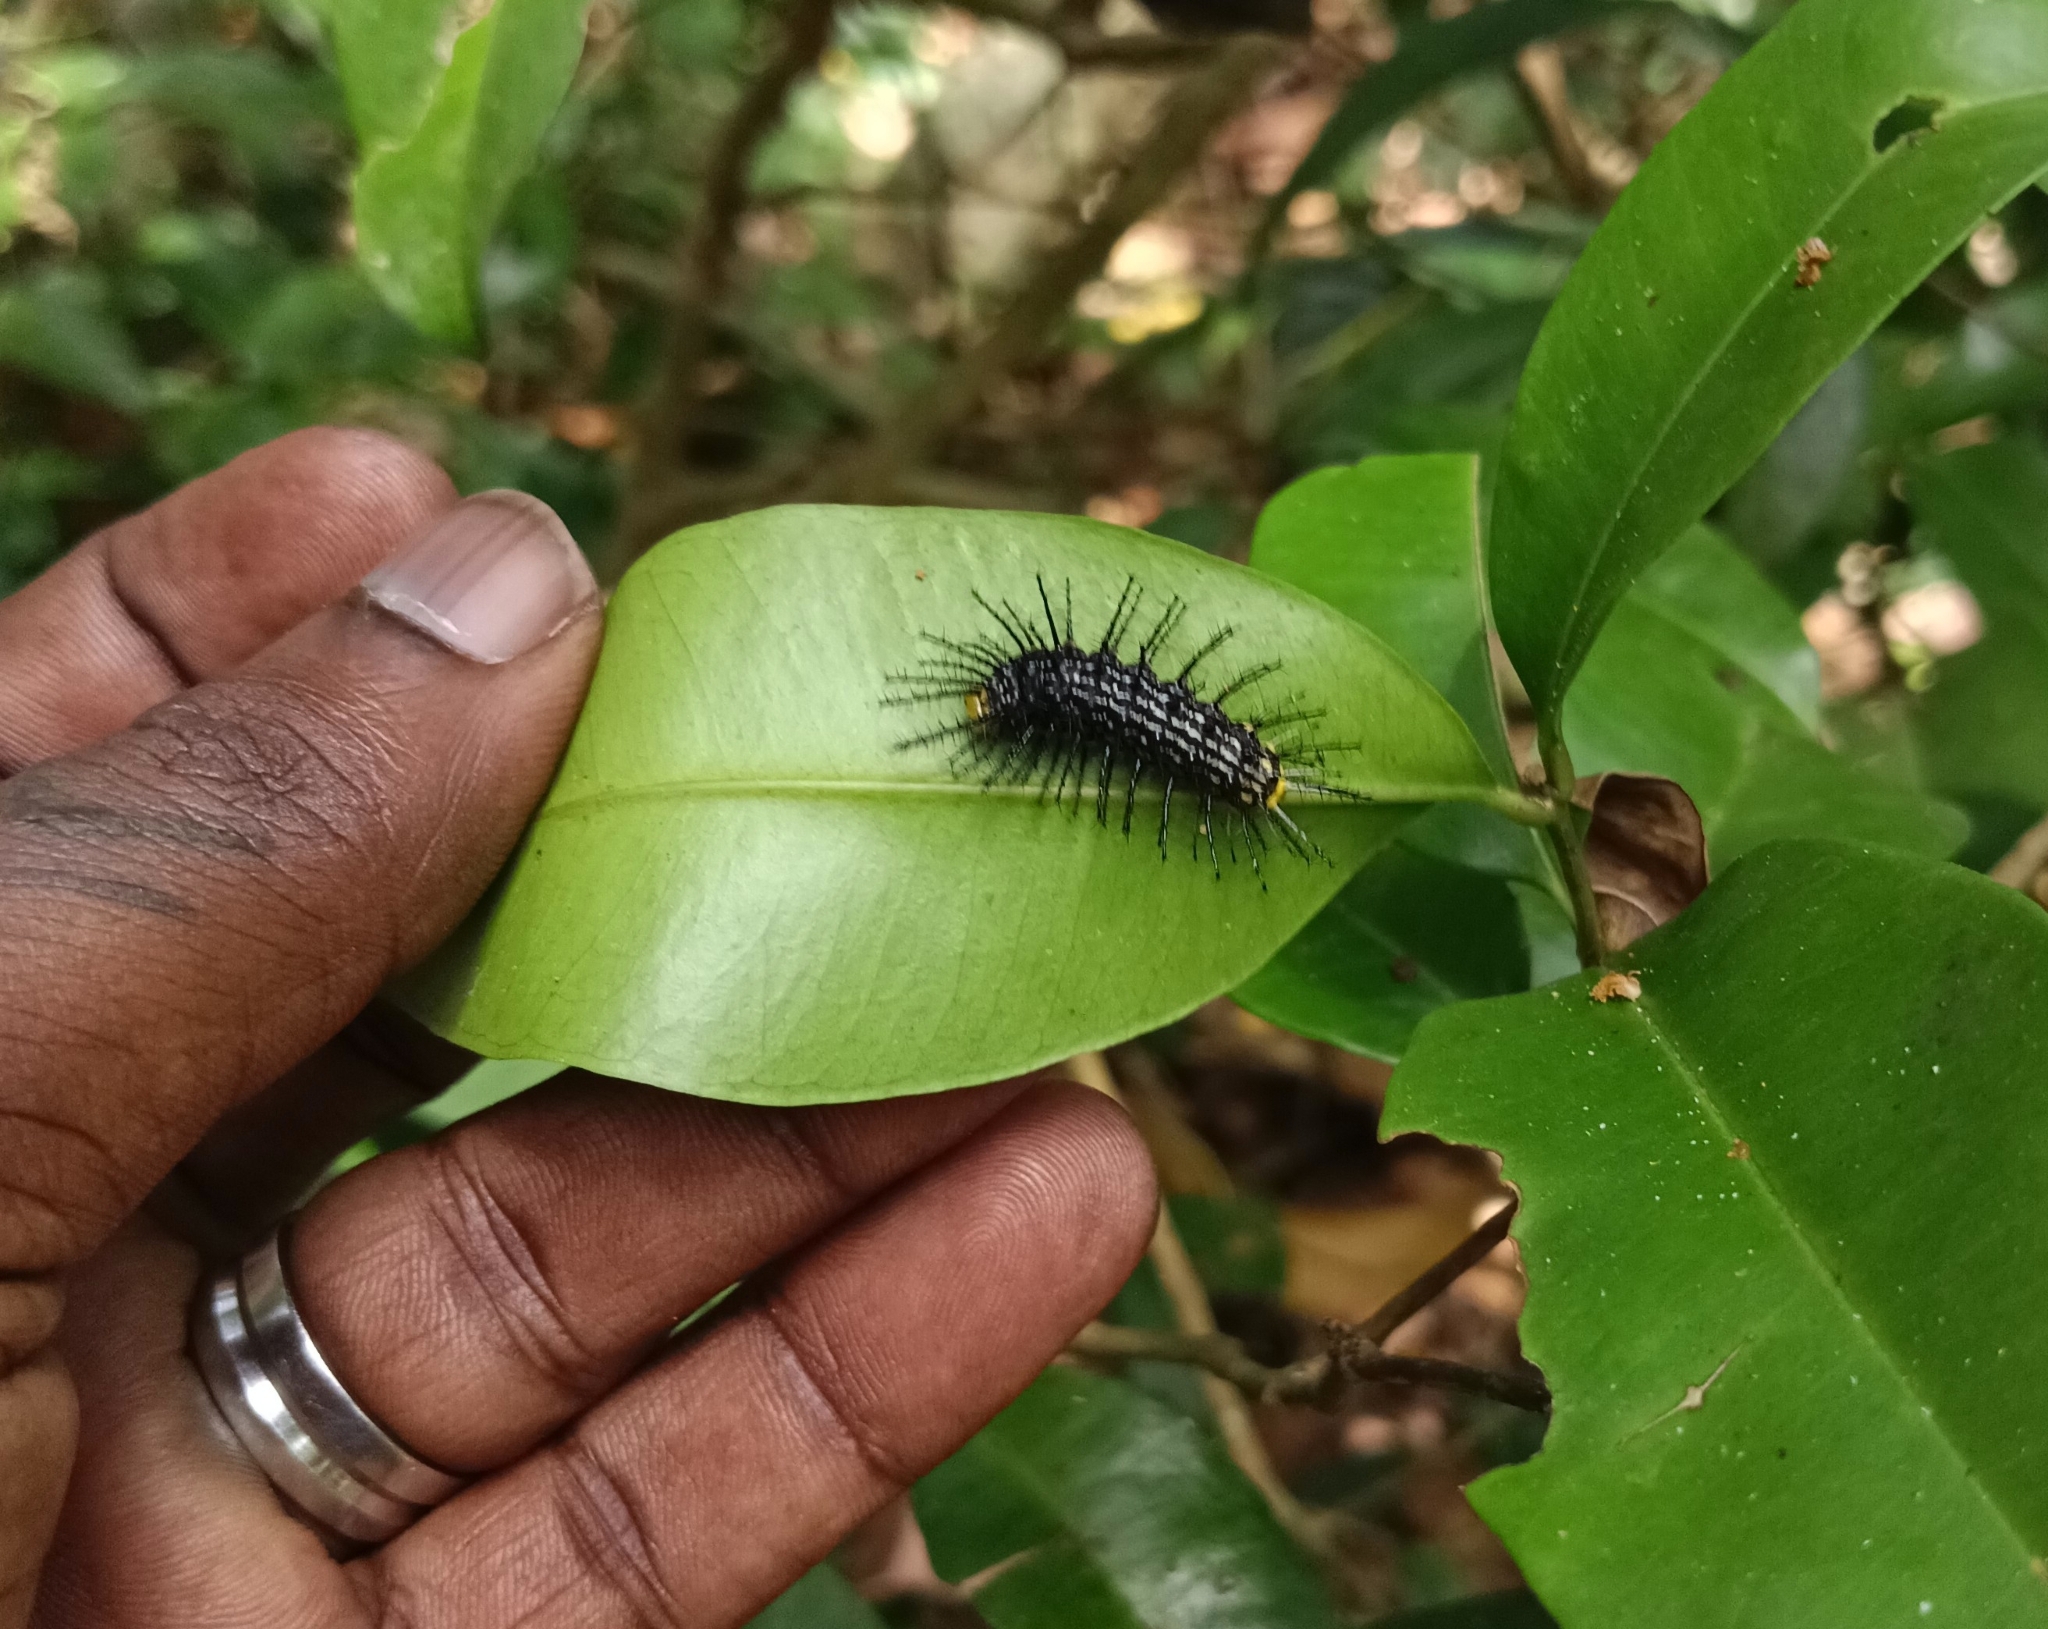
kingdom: Animalia
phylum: Arthropoda
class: Insecta
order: Lepidoptera
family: Nymphalidae
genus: Cirrochroa
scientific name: Cirrochroa thais
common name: Tamil yeoman
